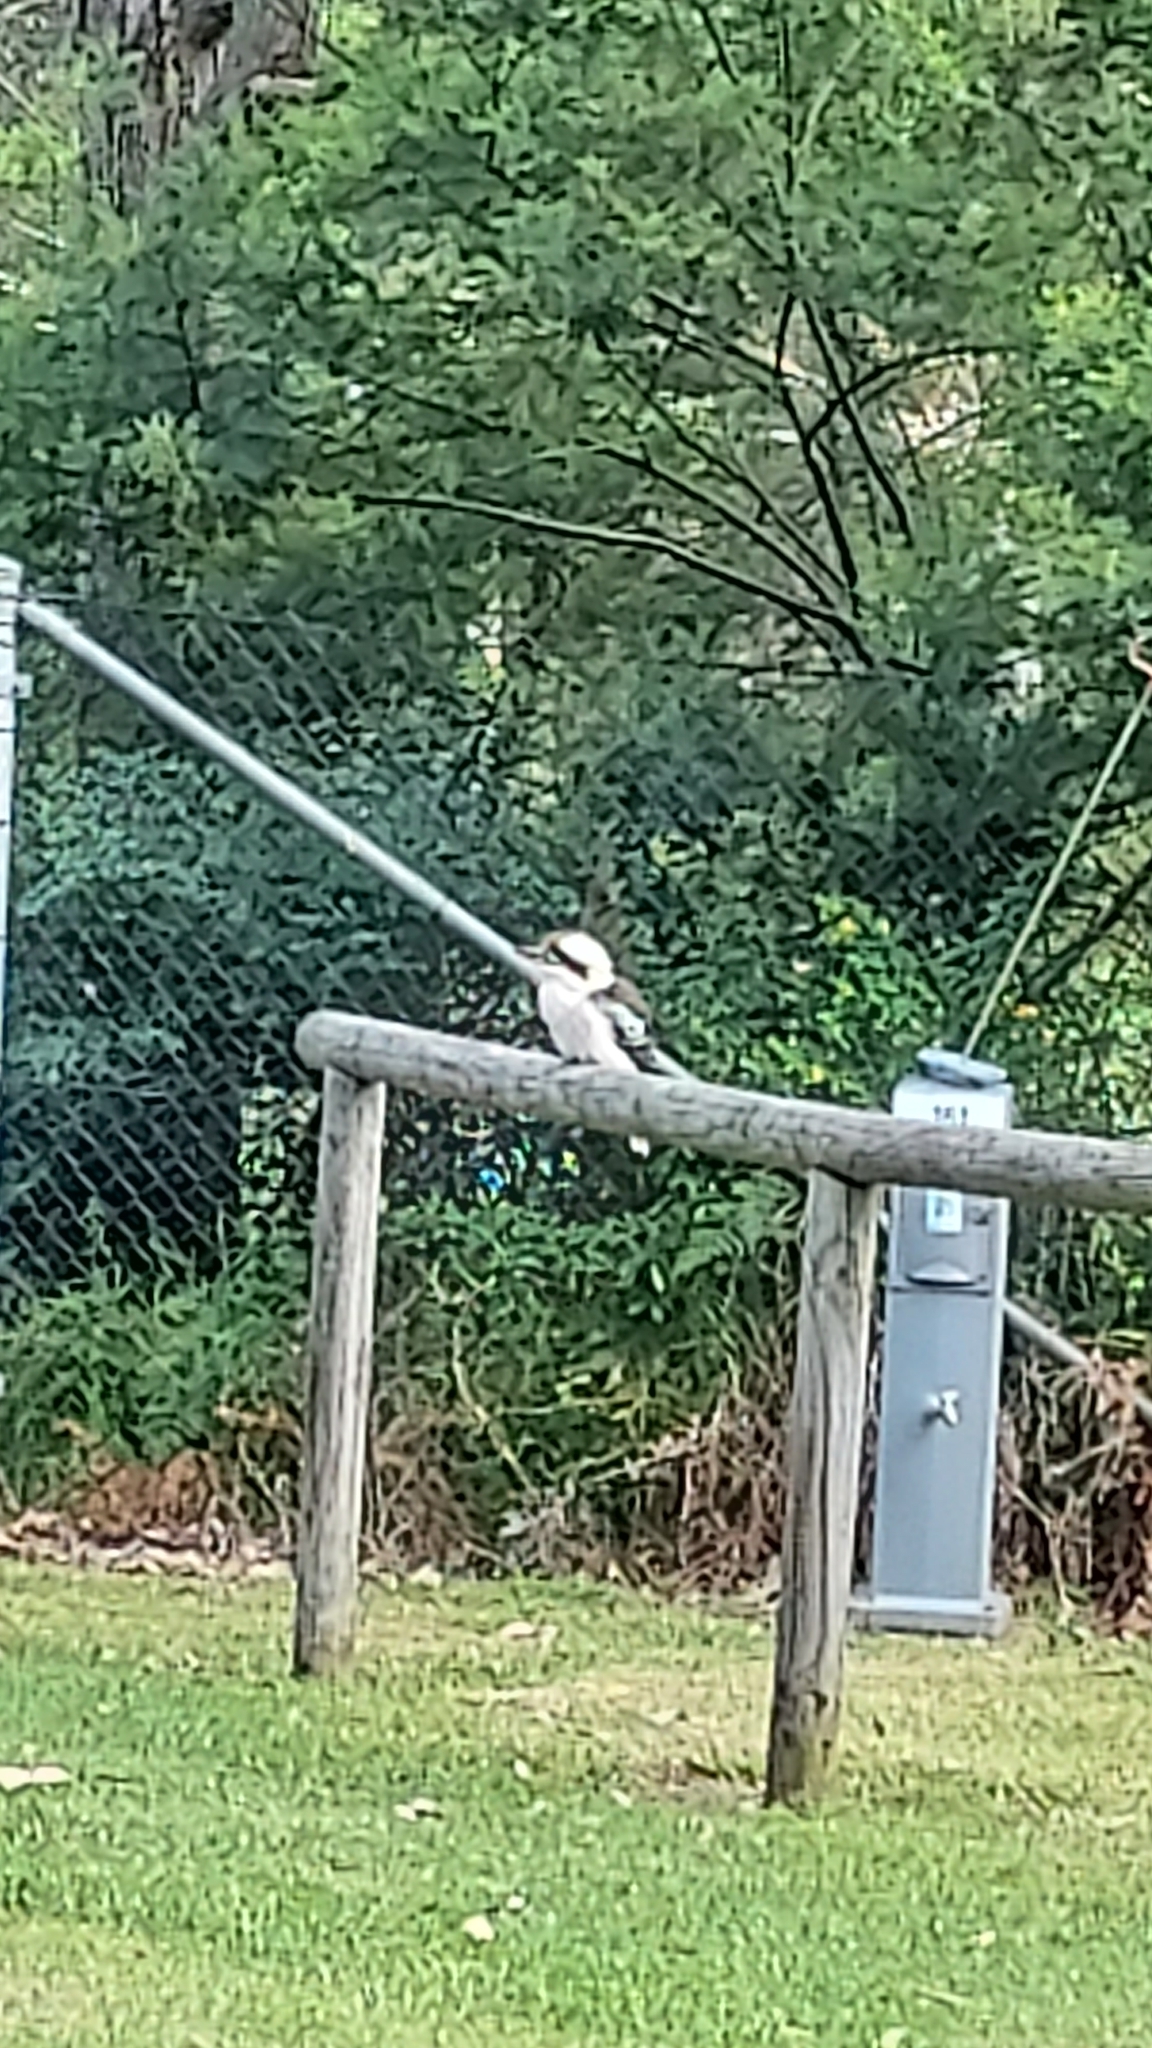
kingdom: Animalia
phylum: Chordata
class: Aves
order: Coraciiformes
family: Alcedinidae
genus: Dacelo
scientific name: Dacelo novaeguineae
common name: Laughing kookaburra
